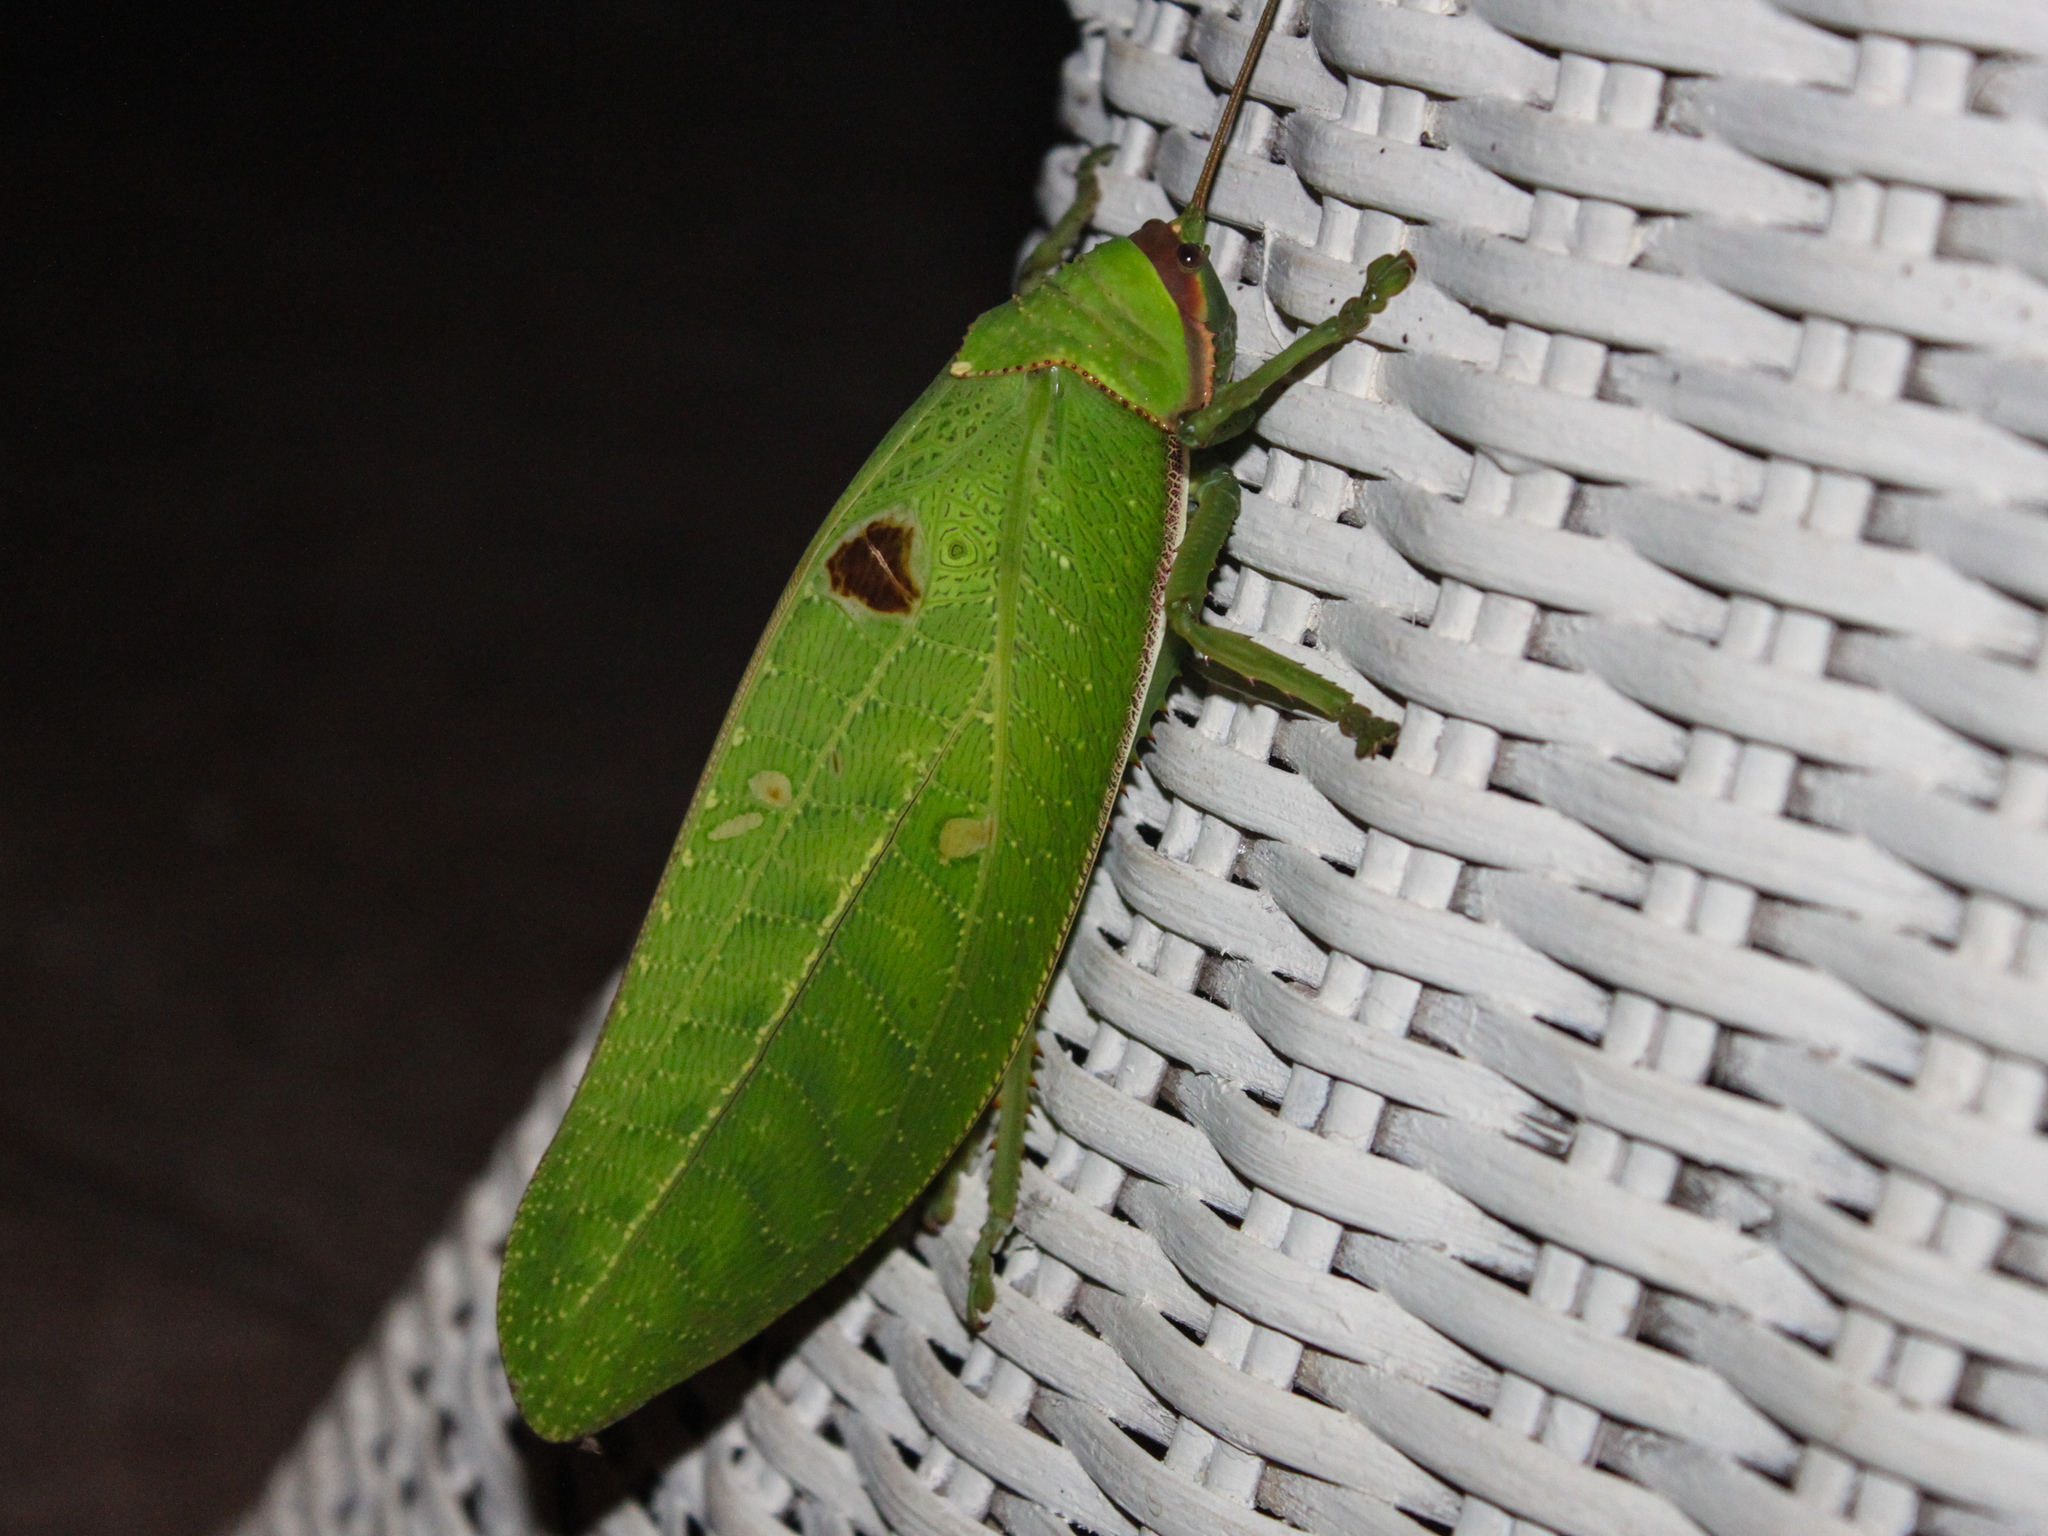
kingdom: Animalia
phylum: Arthropoda
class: Insecta
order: Orthoptera
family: Tettigoniidae
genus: Pseudophyllus
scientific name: Pseudophyllus titan
